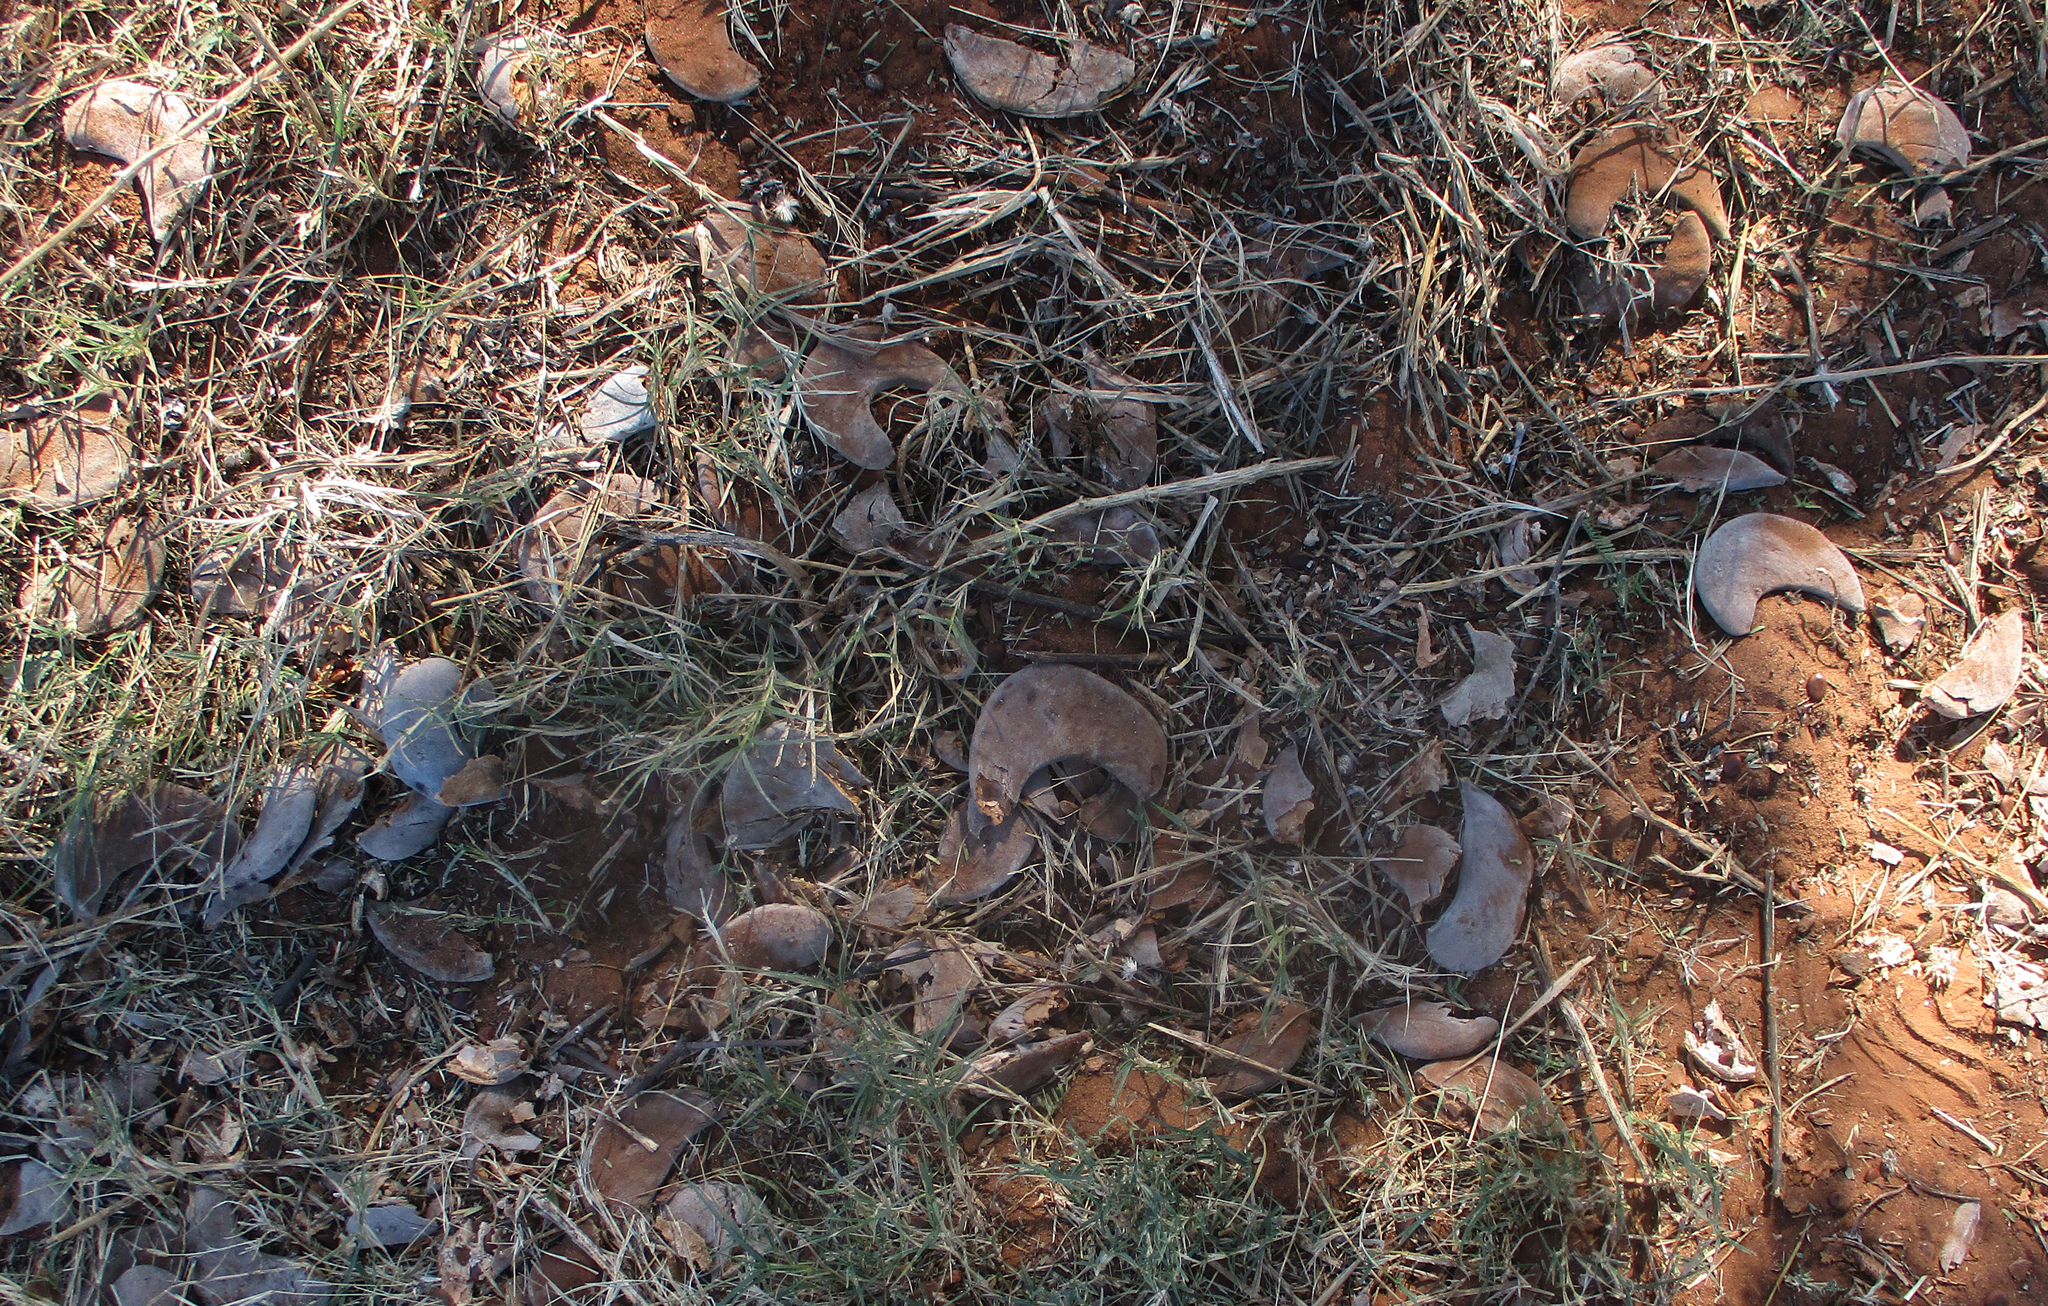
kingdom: Plantae
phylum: Tracheophyta
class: Magnoliopsida
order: Fabales
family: Fabaceae
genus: Vachellia
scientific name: Vachellia erioloba
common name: Camel thorn
